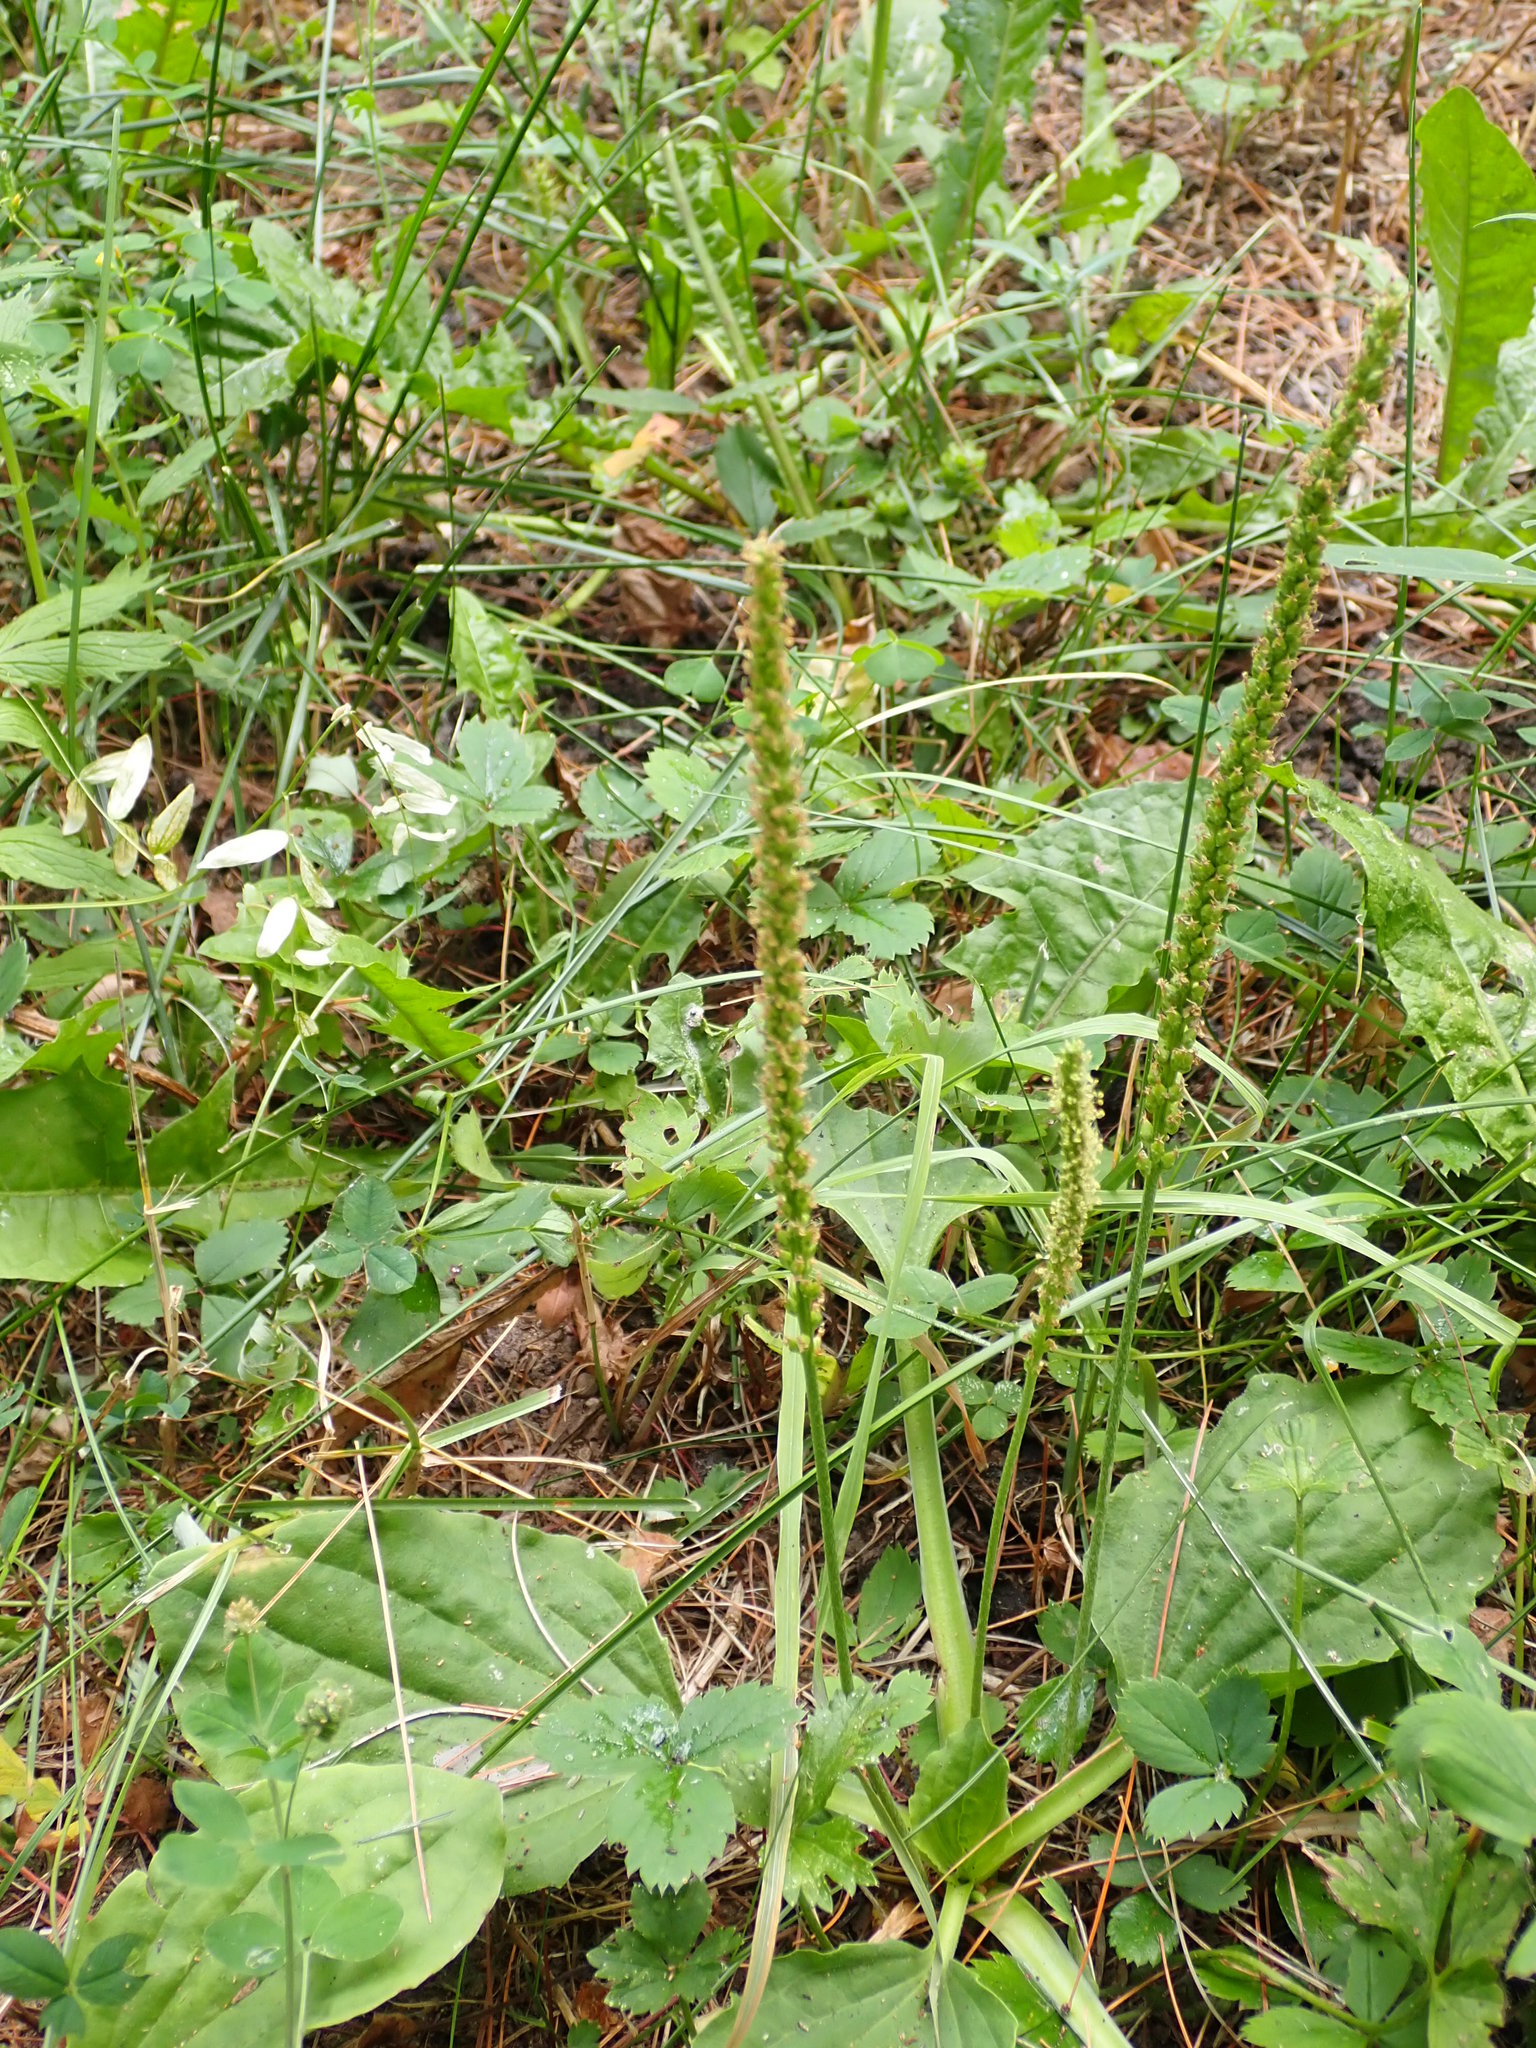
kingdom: Plantae
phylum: Tracheophyta
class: Magnoliopsida
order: Lamiales
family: Plantaginaceae
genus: Plantago
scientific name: Plantago major
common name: Common plantain
